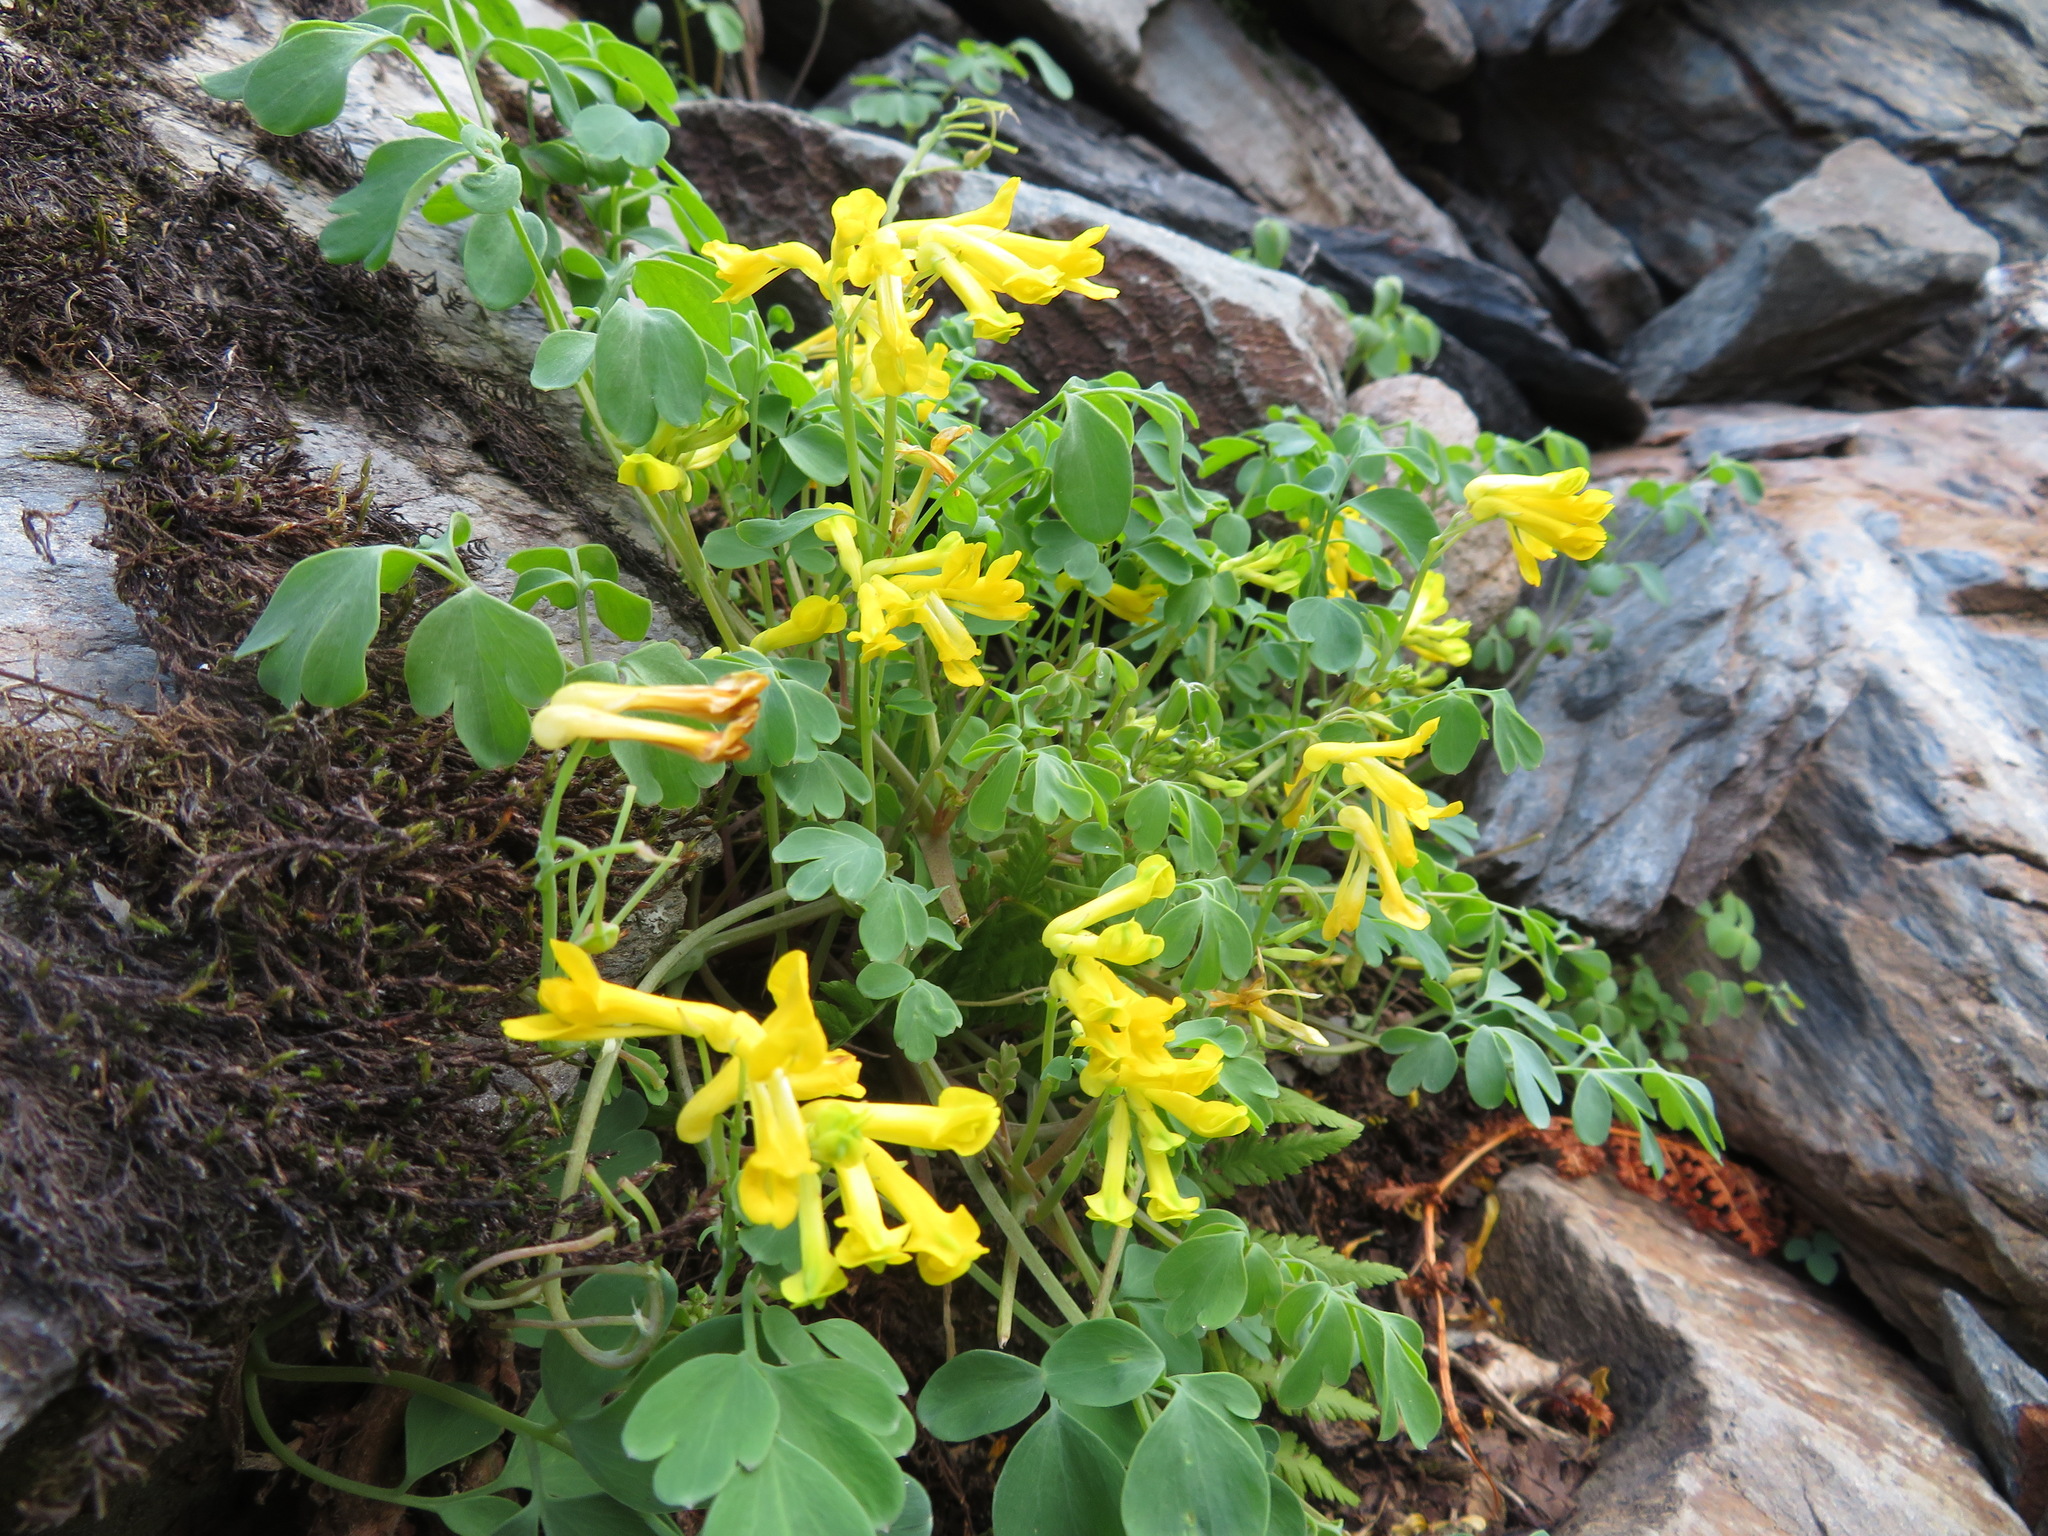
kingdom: Plantae
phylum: Tracheophyta
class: Magnoliopsida
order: Ranunculales
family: Papaveraceae
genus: Pseudofumaria
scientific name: Pseudofumaria lutea
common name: Yellow corydalis
